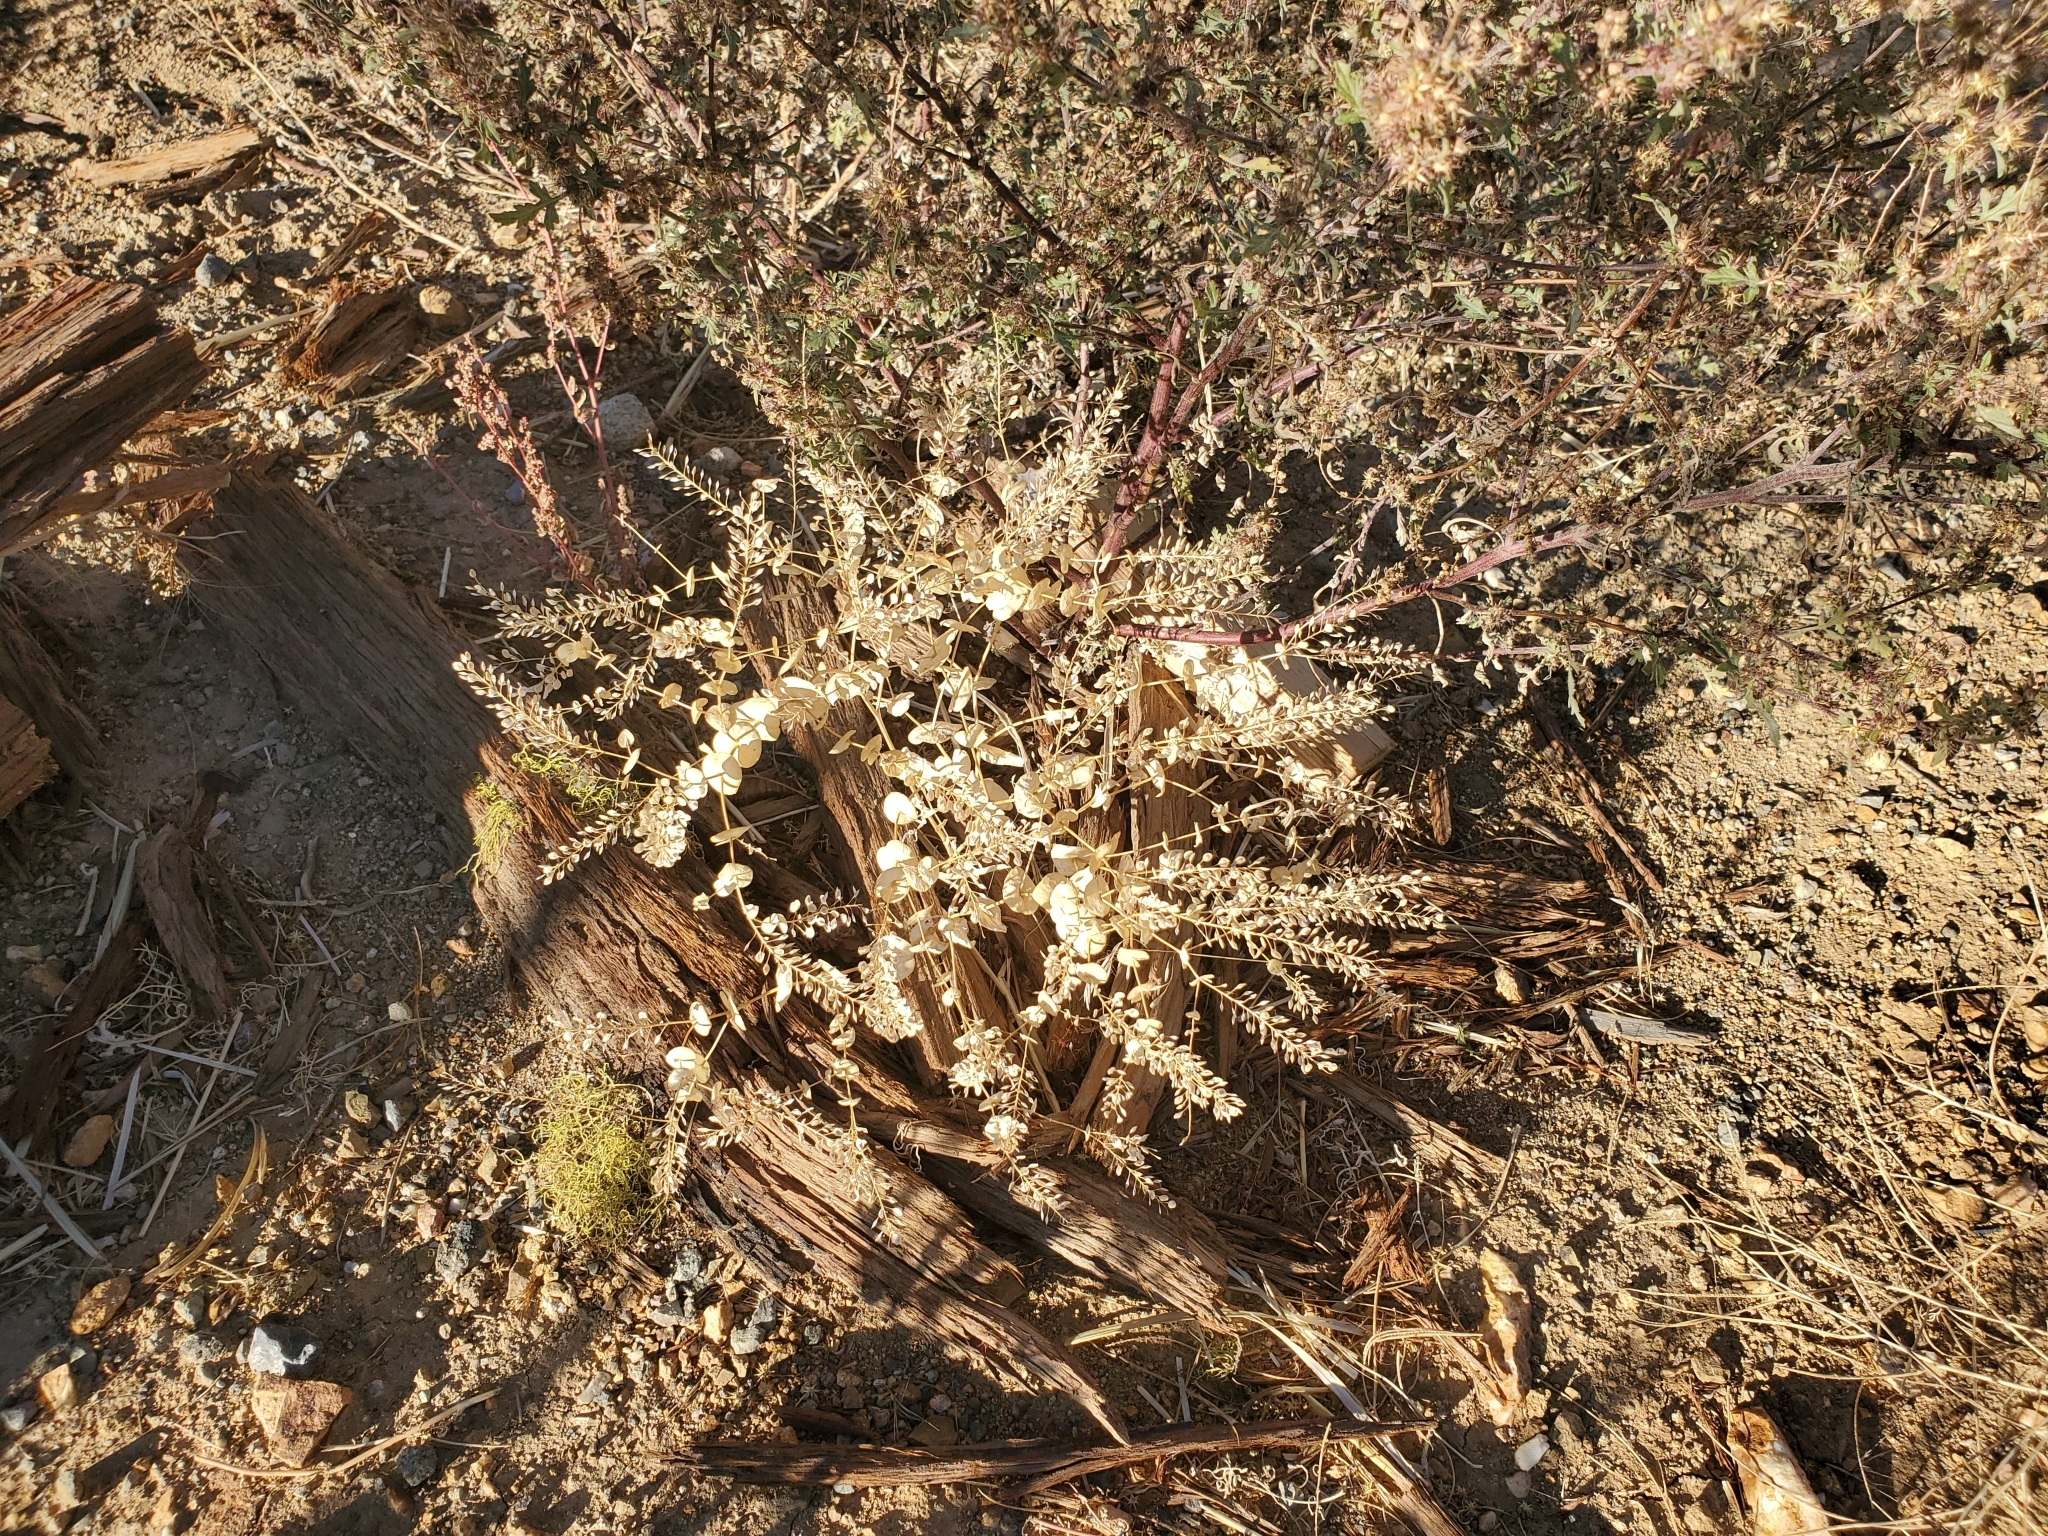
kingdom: Plantae
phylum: Tracheophyta
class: Magnoliopsida
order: Brassicales
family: Brassicaceae
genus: Lepidium
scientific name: Lepidium perfoliatum
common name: Perfoliate pepperwort
